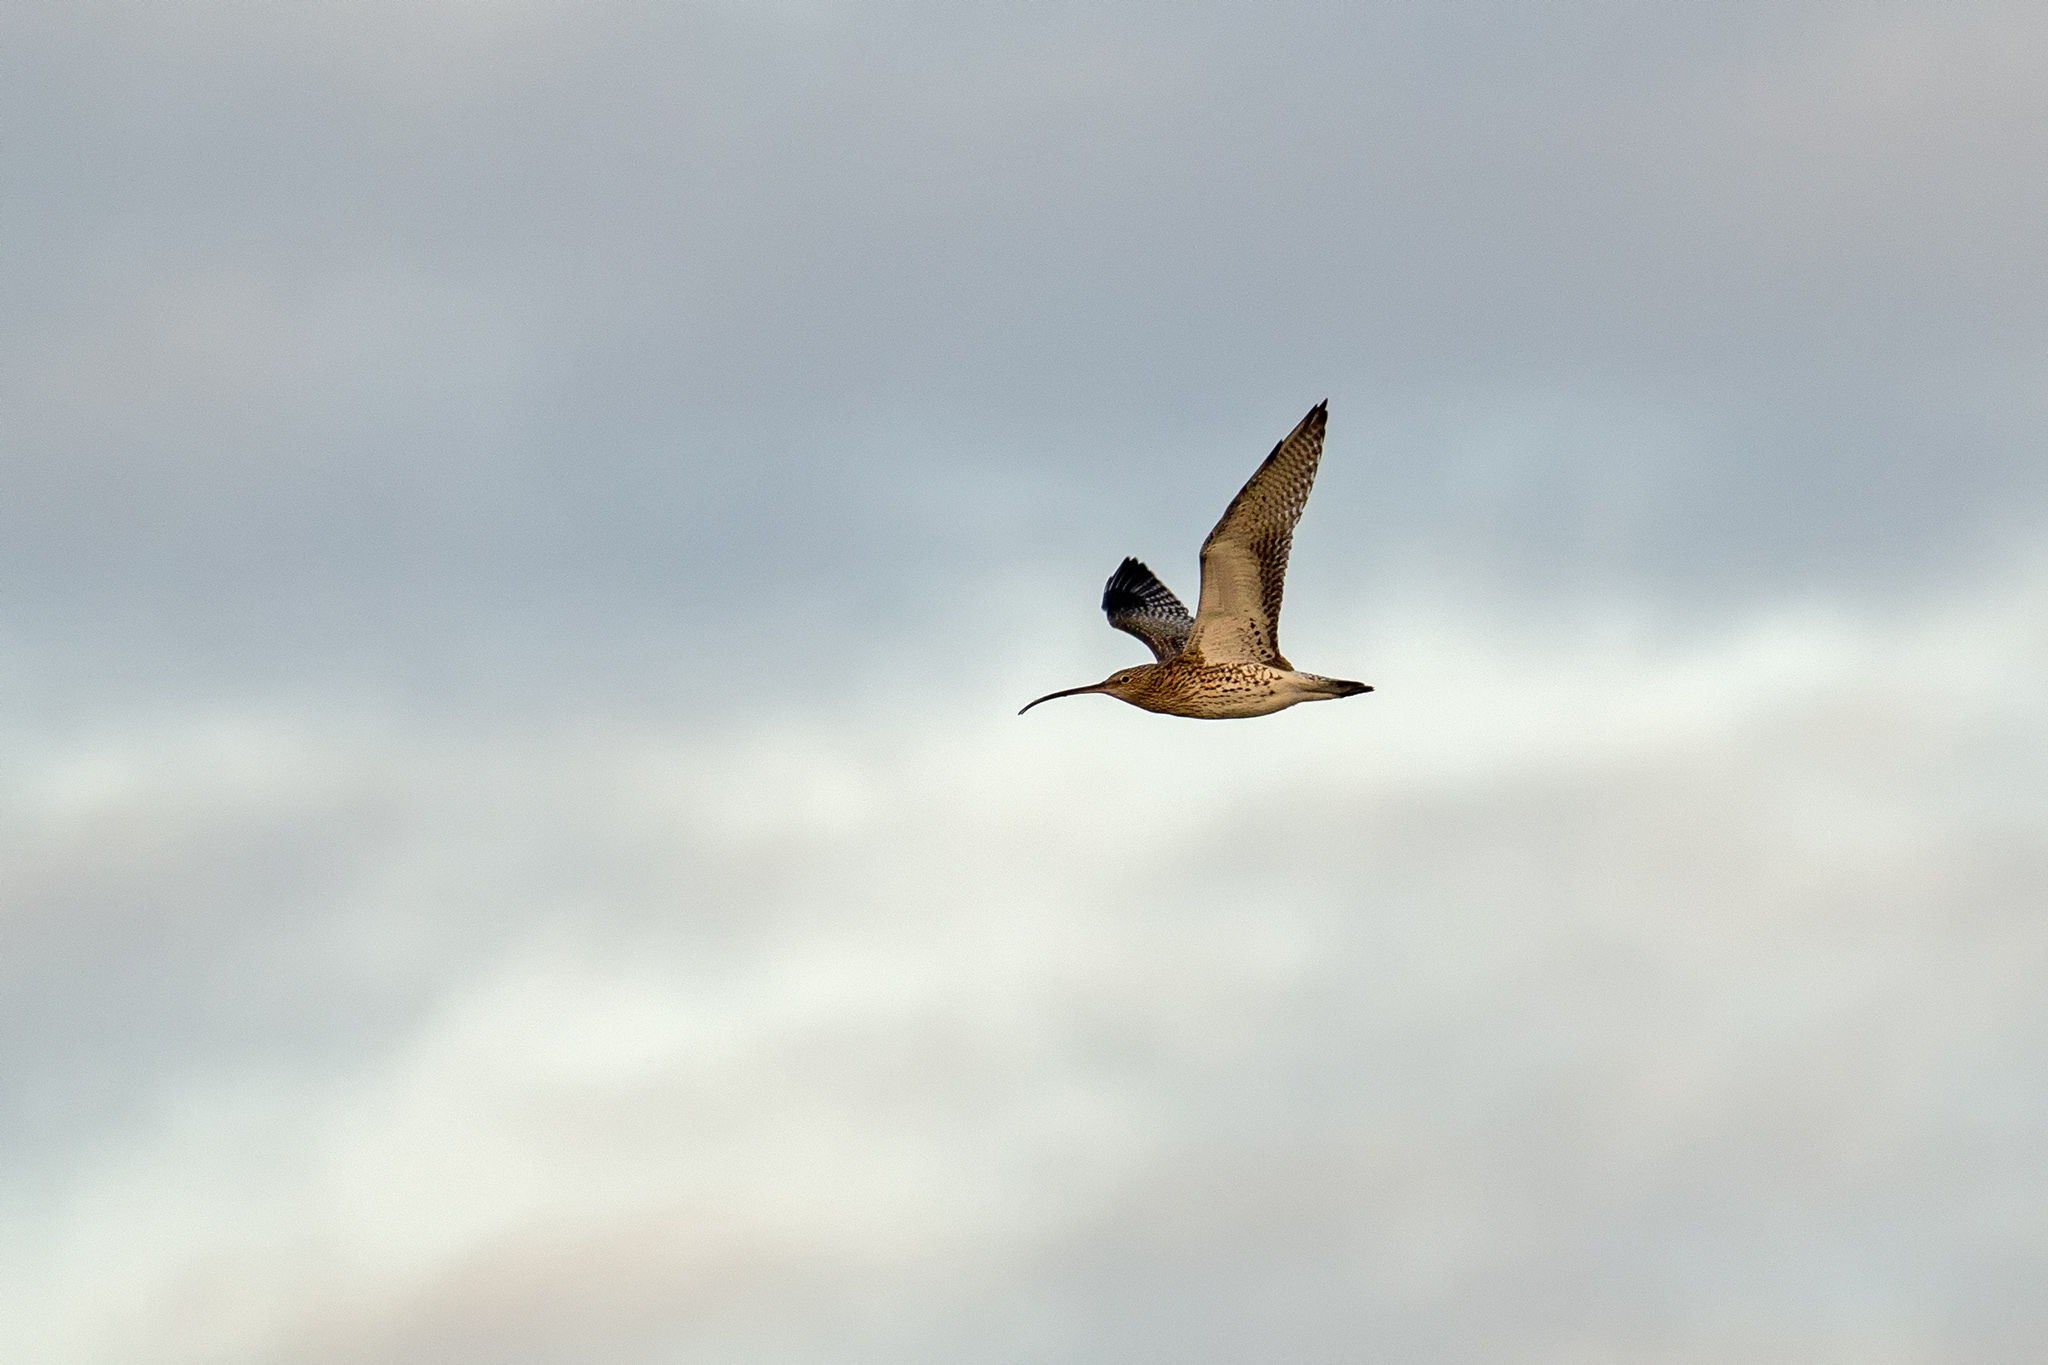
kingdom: Animalia
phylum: Chordata
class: Aves
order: Charadriiformes
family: Scolopacidae
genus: Numenius
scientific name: Numenius arquata
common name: Eurasian curlew
